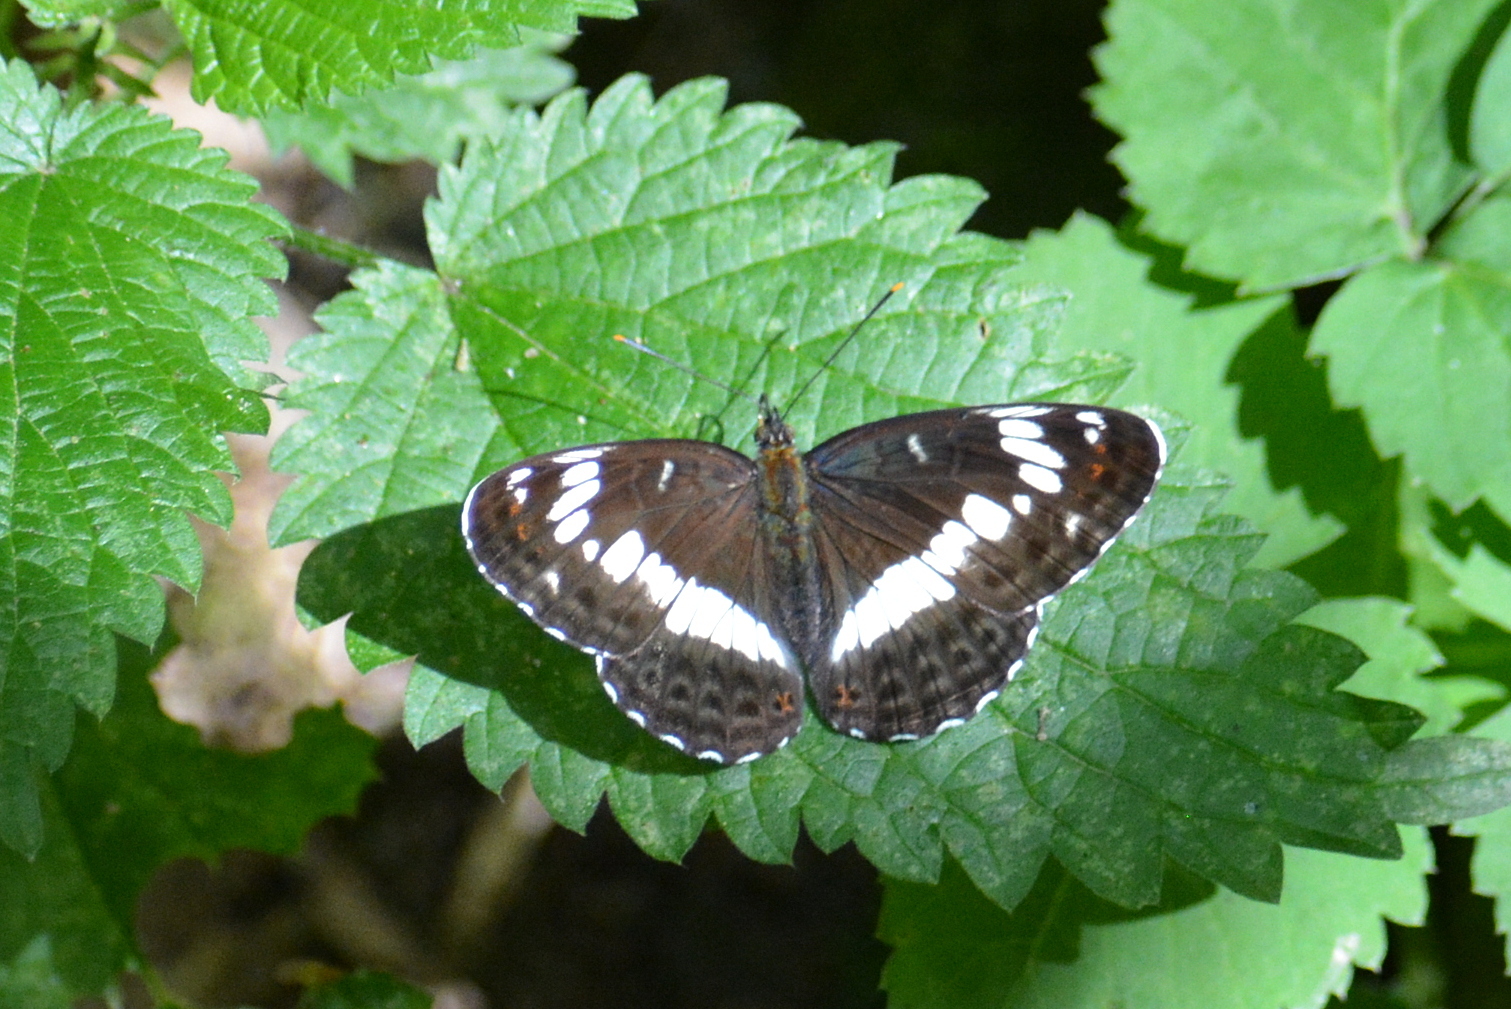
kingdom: Animalia
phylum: Arthropoda
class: Insecta
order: Lepidoptera
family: Nymphalidae
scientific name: Nymphalidae
